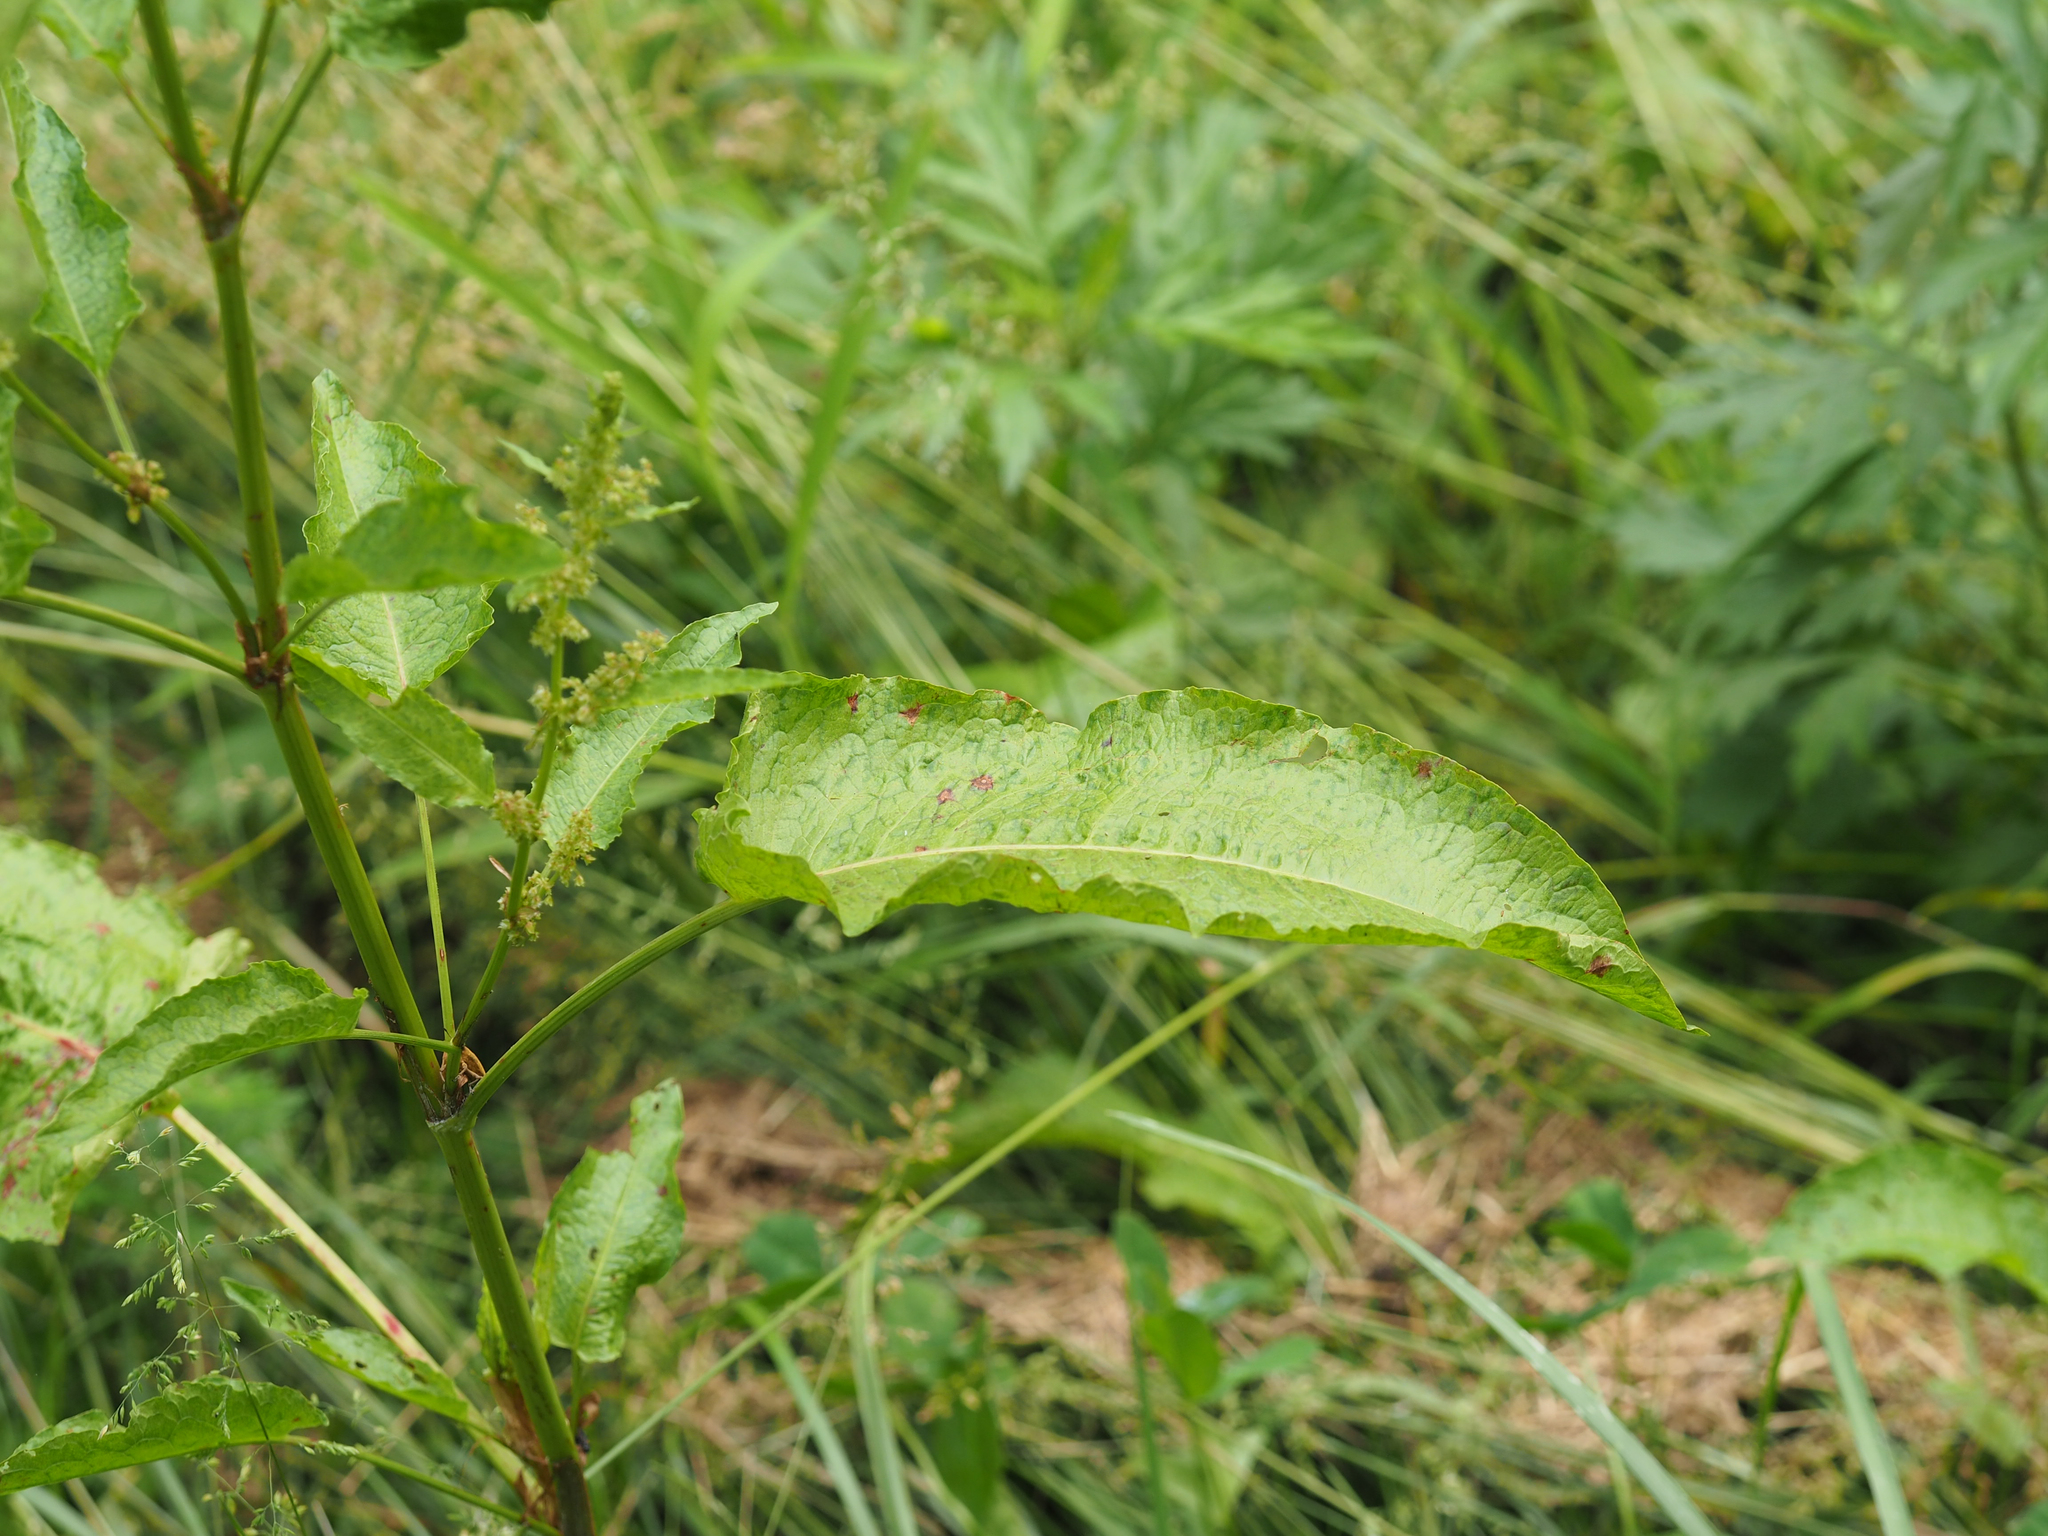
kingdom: Plantae
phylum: Tracheophyta
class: Magnoliopsida
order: Caryophyllales
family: Polygonaceae
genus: Rumex
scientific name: Rumex crispus
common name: Curled dock
